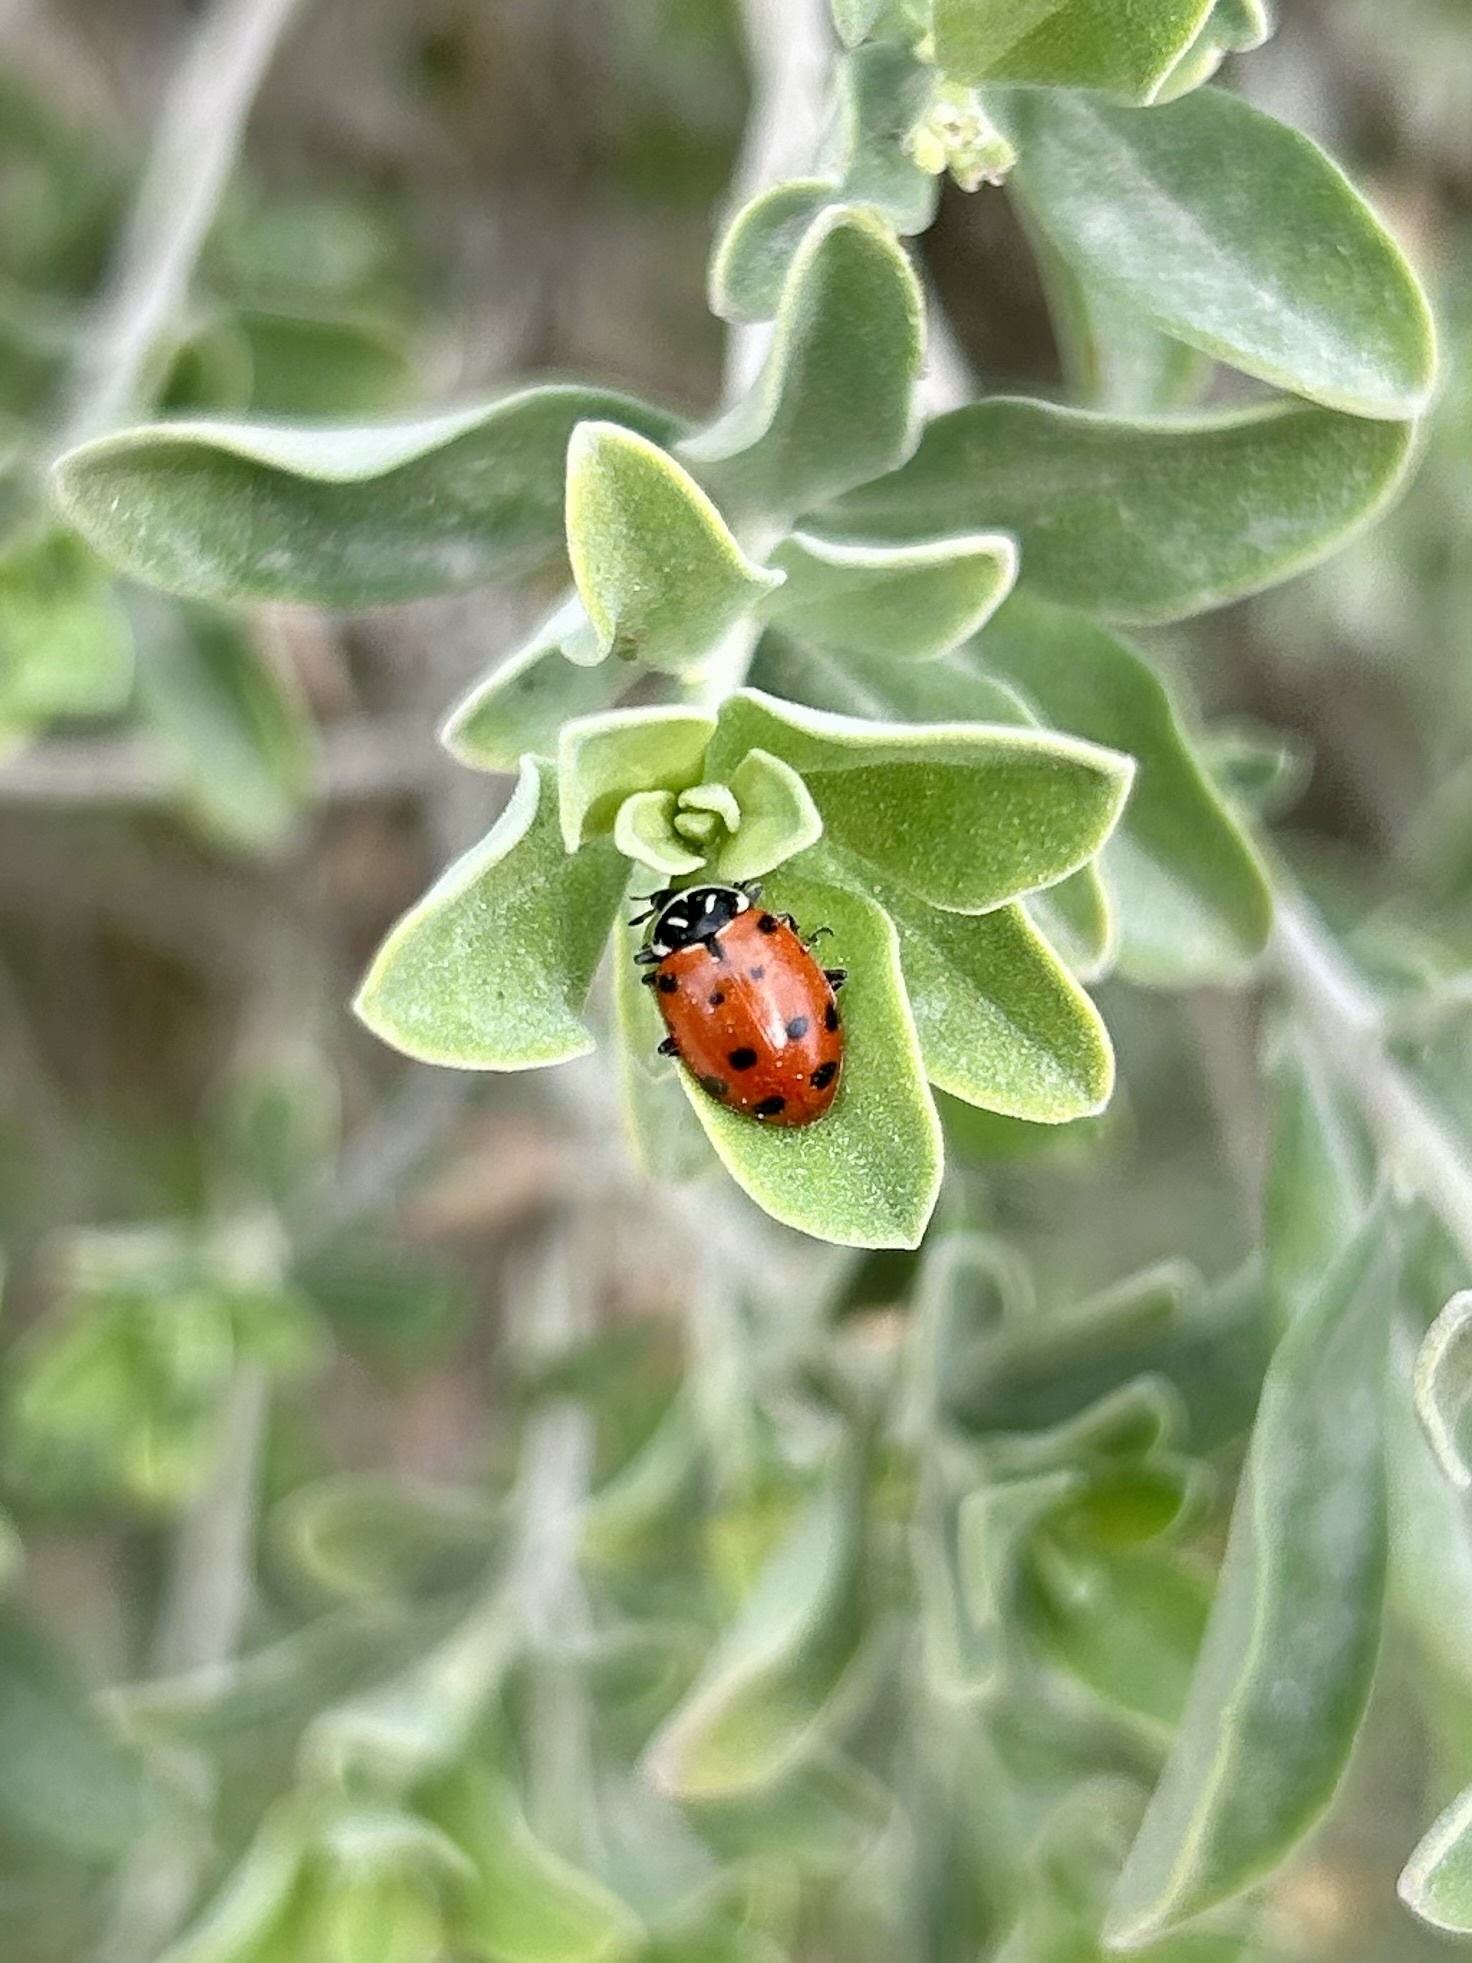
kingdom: Animalia
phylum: Arthropoda
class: Insecta
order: Coleoptera
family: Coccinellidae
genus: Hippodamia
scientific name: Hippodamia convergens
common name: Convergent lady beetle
